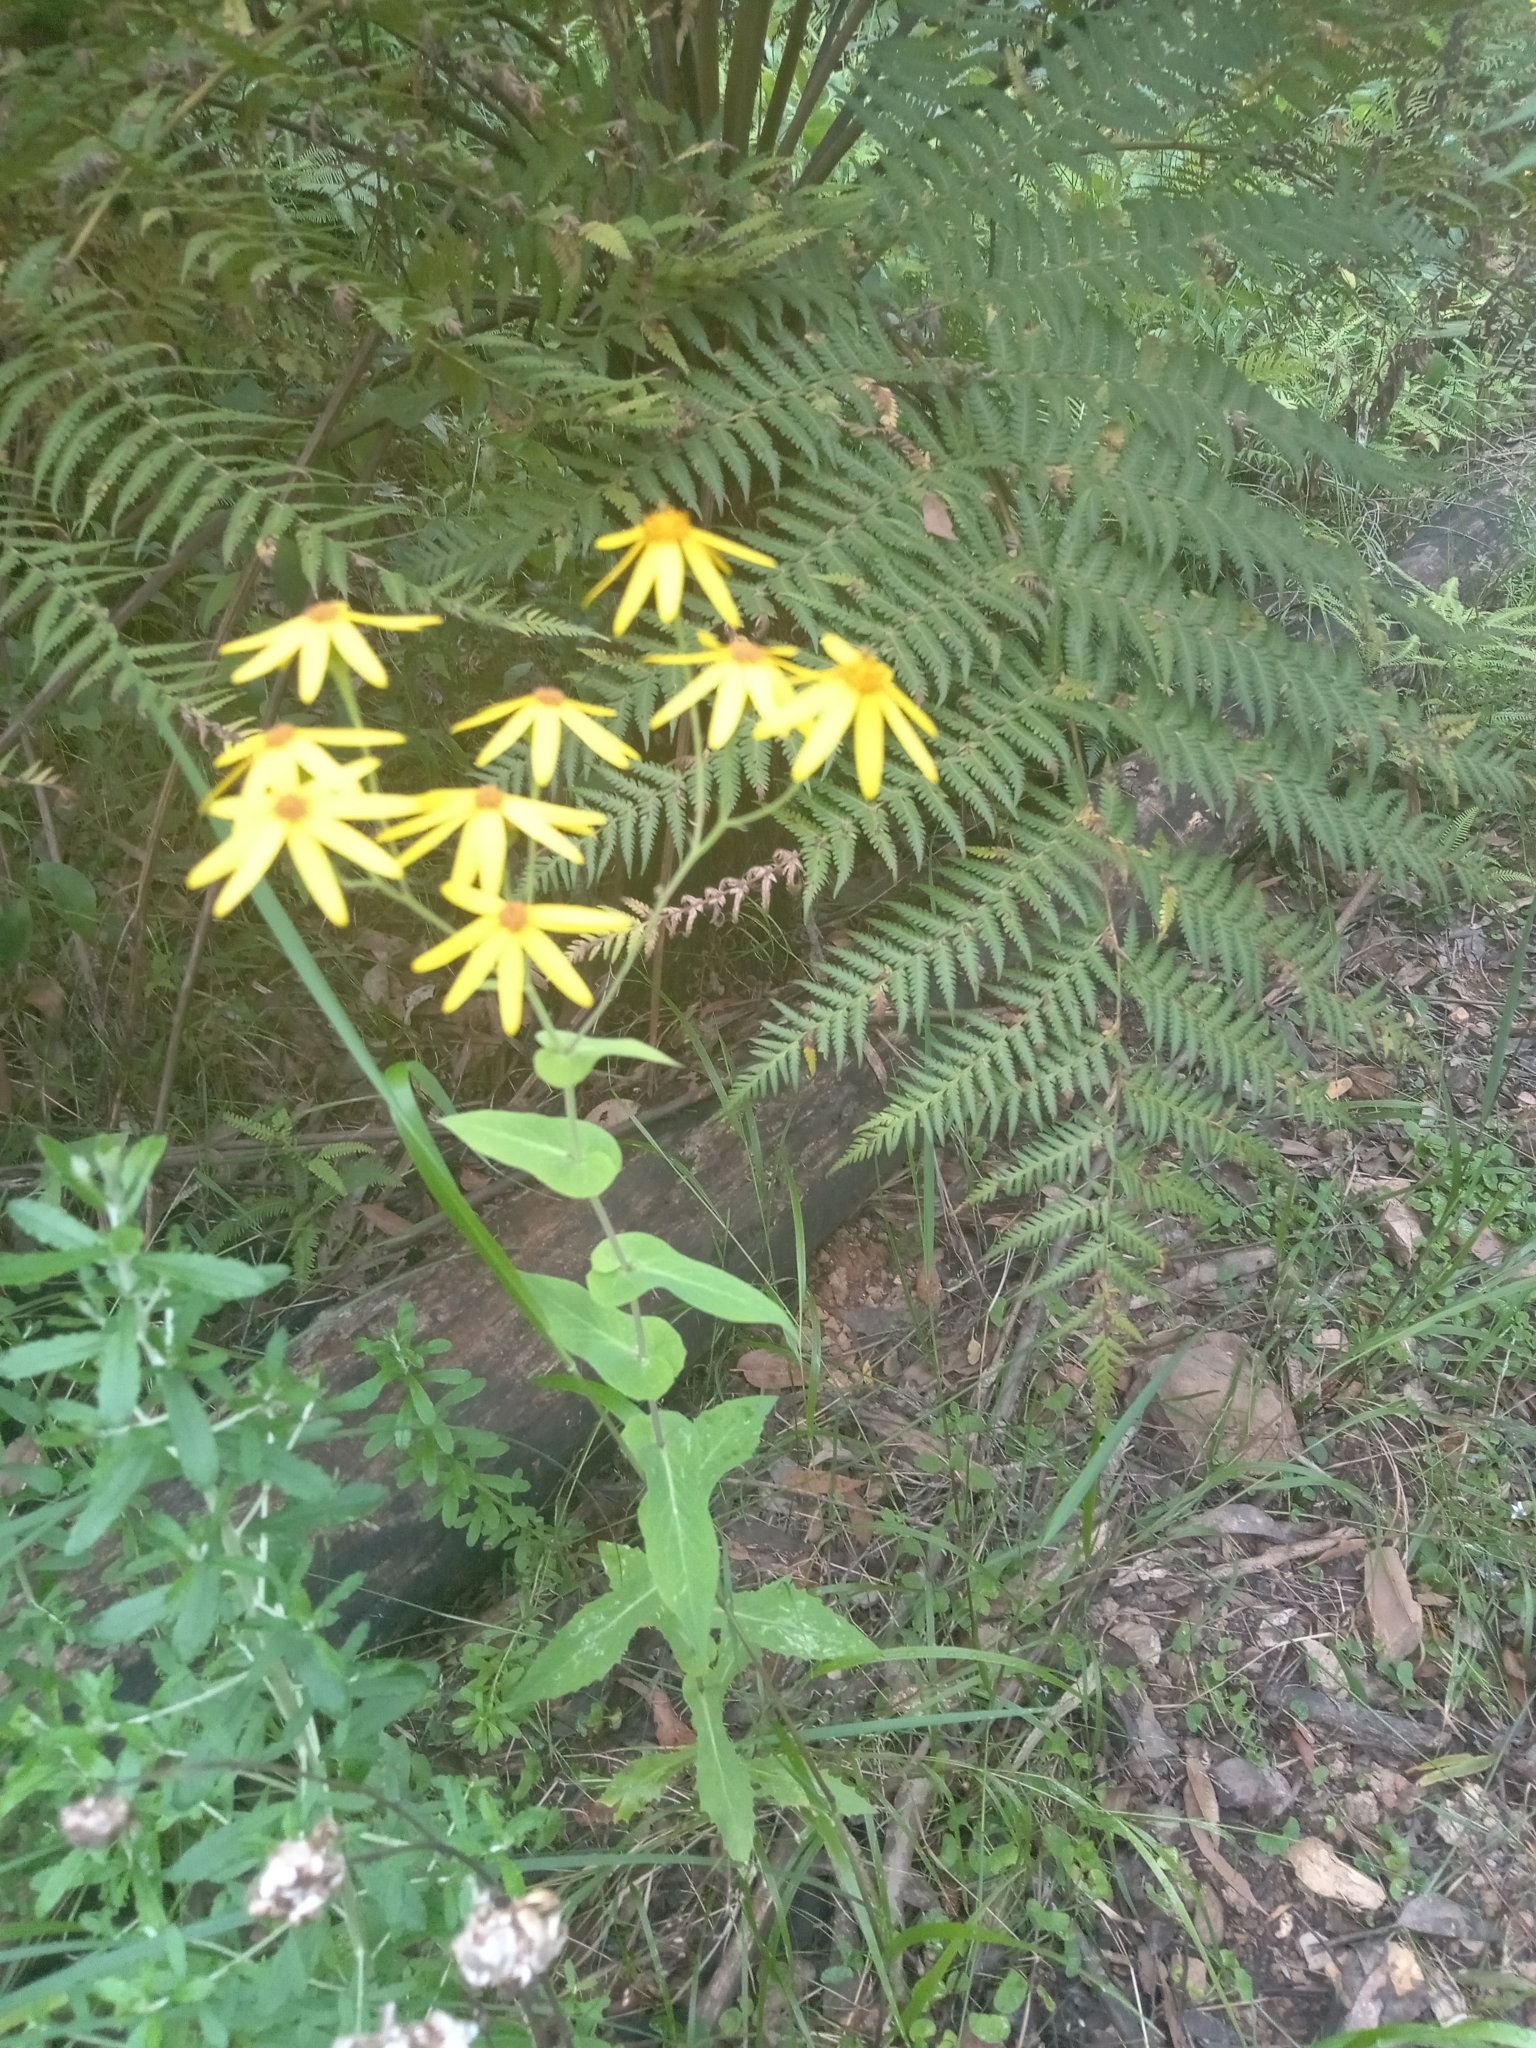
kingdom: Plantae
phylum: Tracheophyta
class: Magnoliopsida
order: Asterales
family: Asteraceae
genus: Lordhowea
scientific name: Lordhowea velleioides
